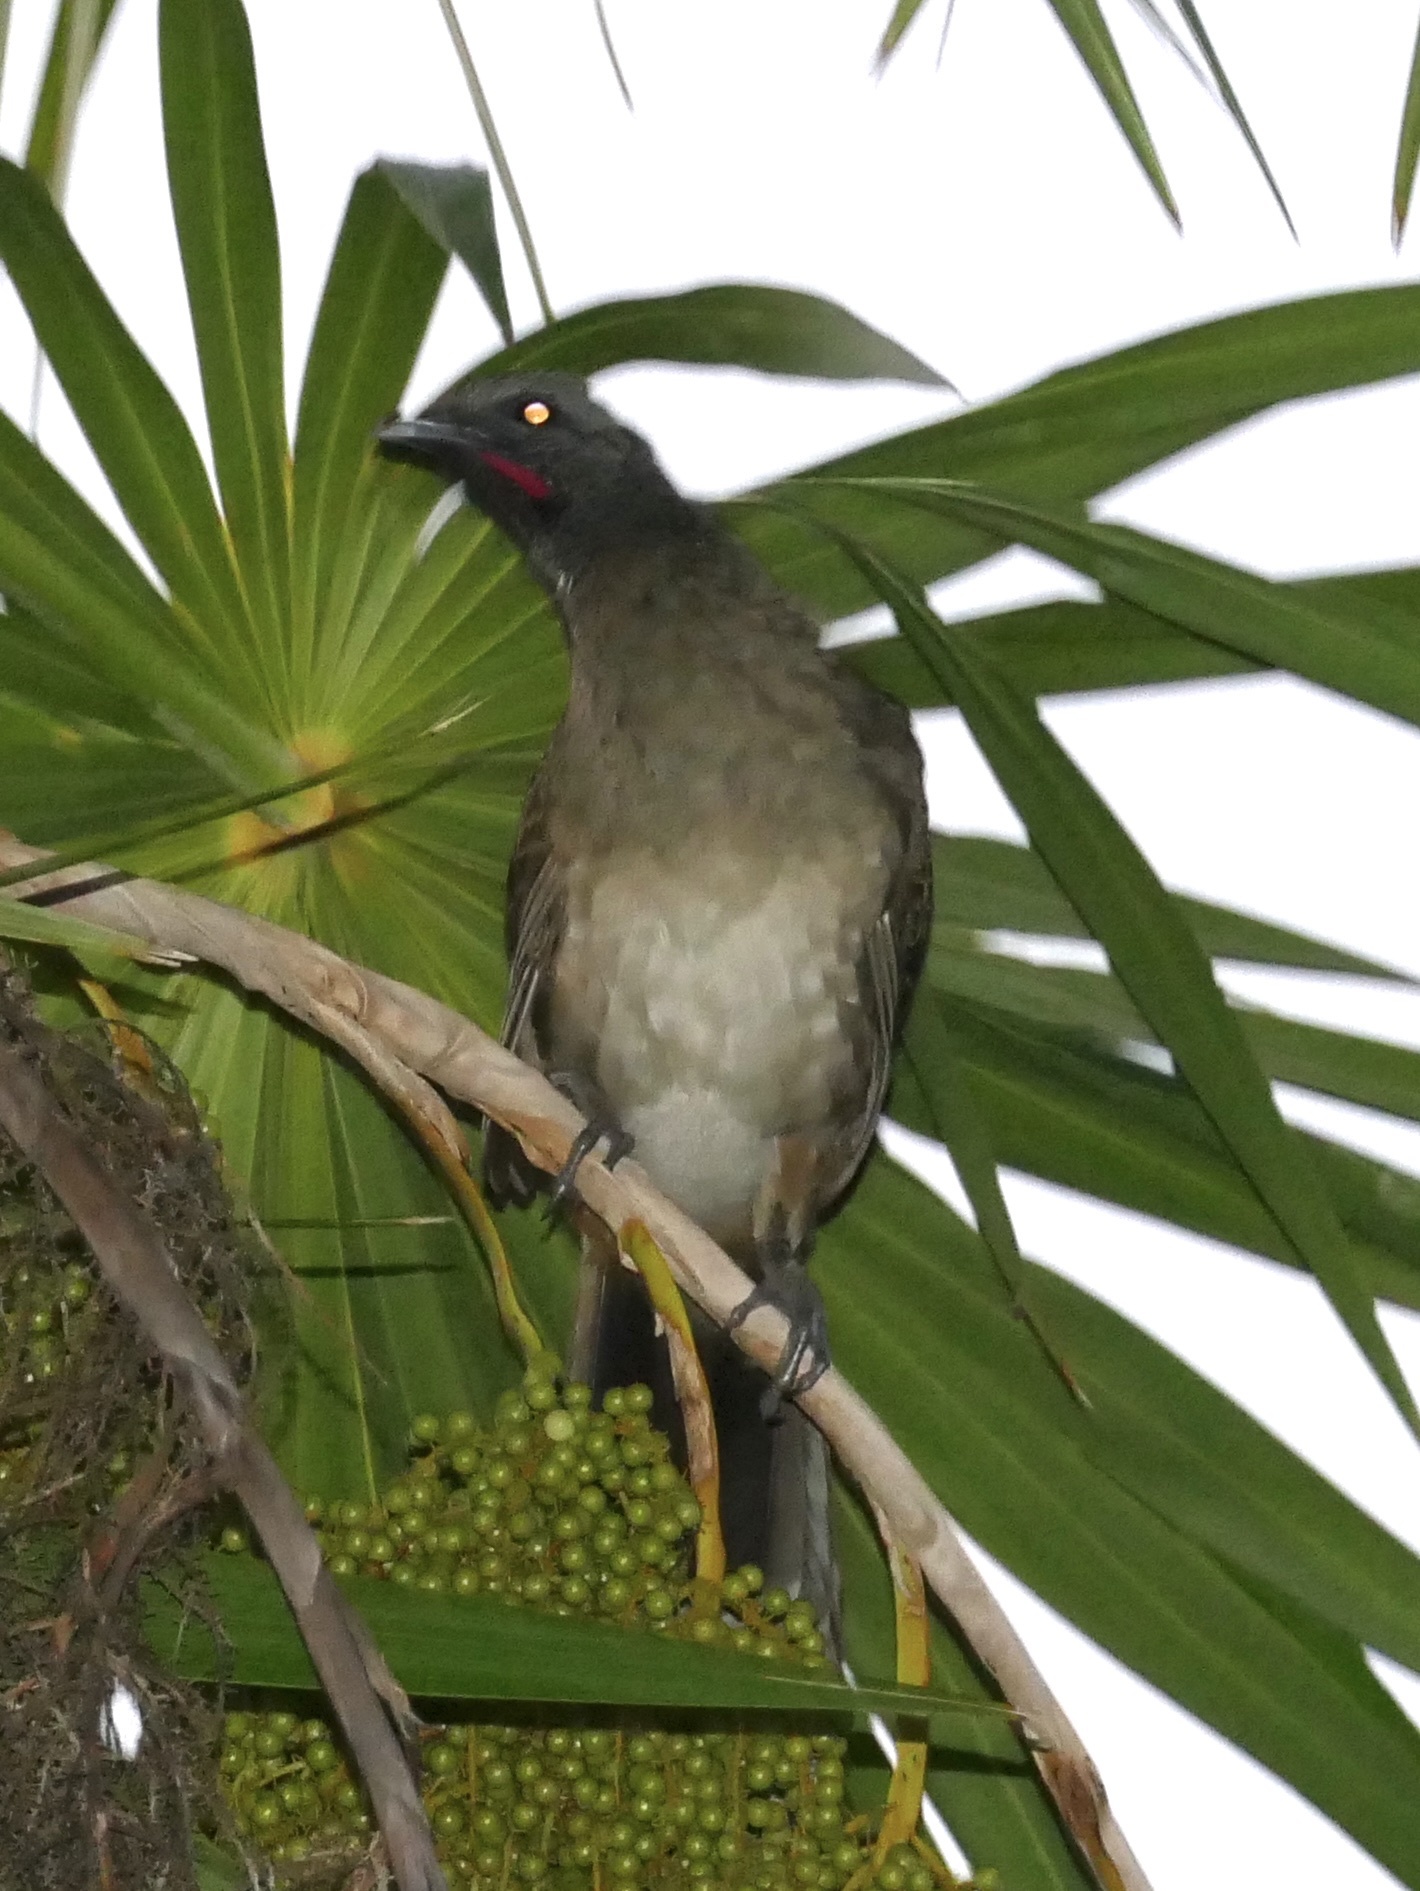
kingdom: Animalia
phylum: Chordata
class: Aves
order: Galliformes
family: Cracidae
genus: Ortalis
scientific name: Ortalis vetula
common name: Plain chachalaca
